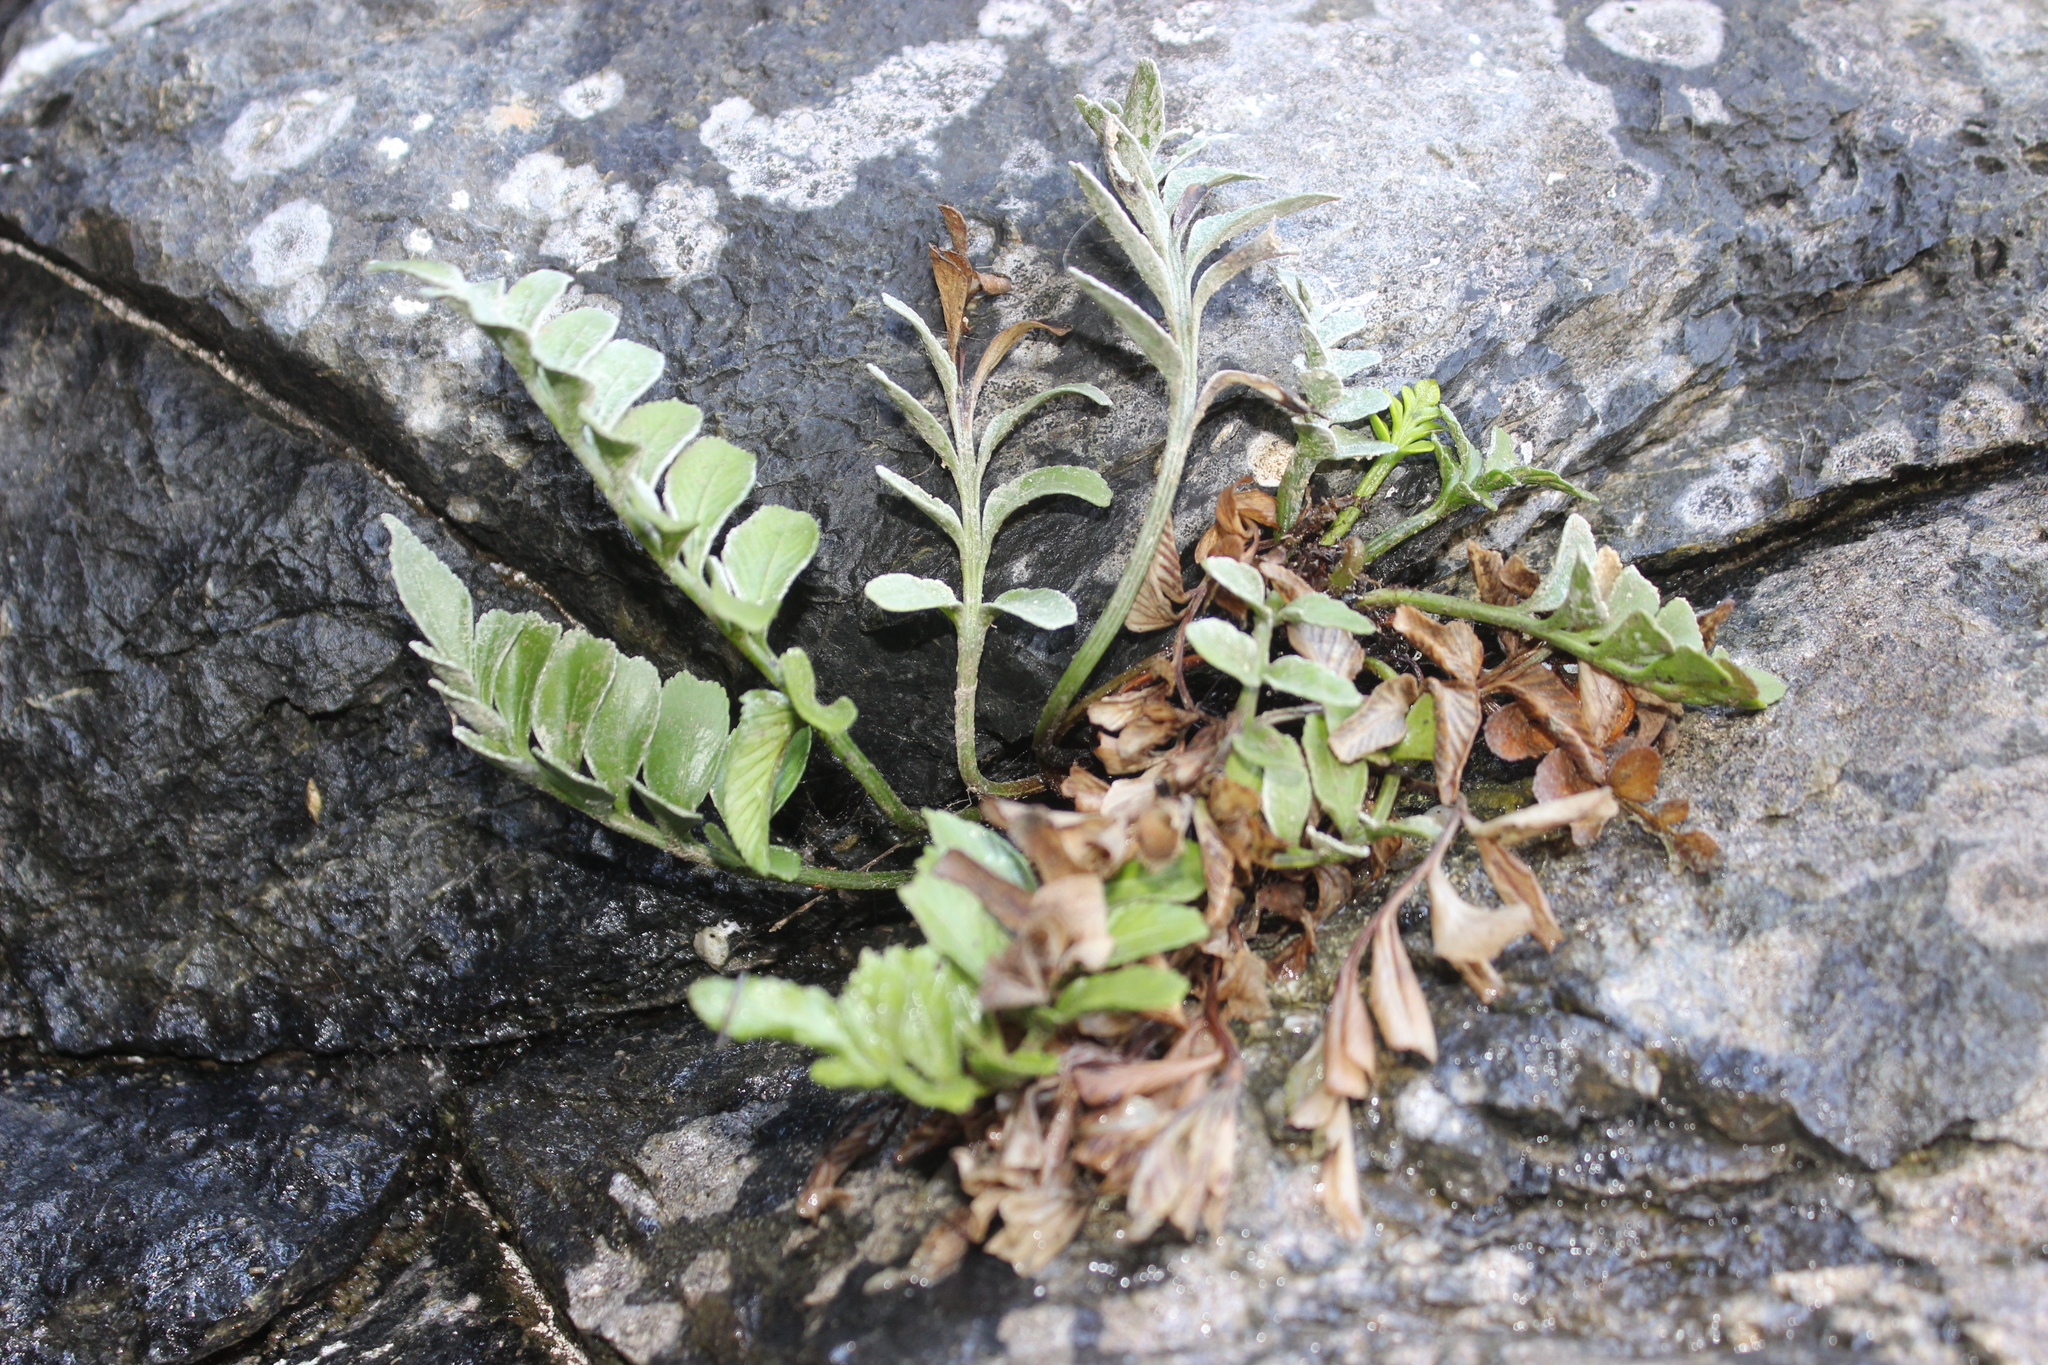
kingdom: Plantae
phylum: Tracheophyta
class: Polypodiopsida
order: Polypodiales
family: Aspleniaceae
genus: Asplenium
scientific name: Asplenium obtusatum
